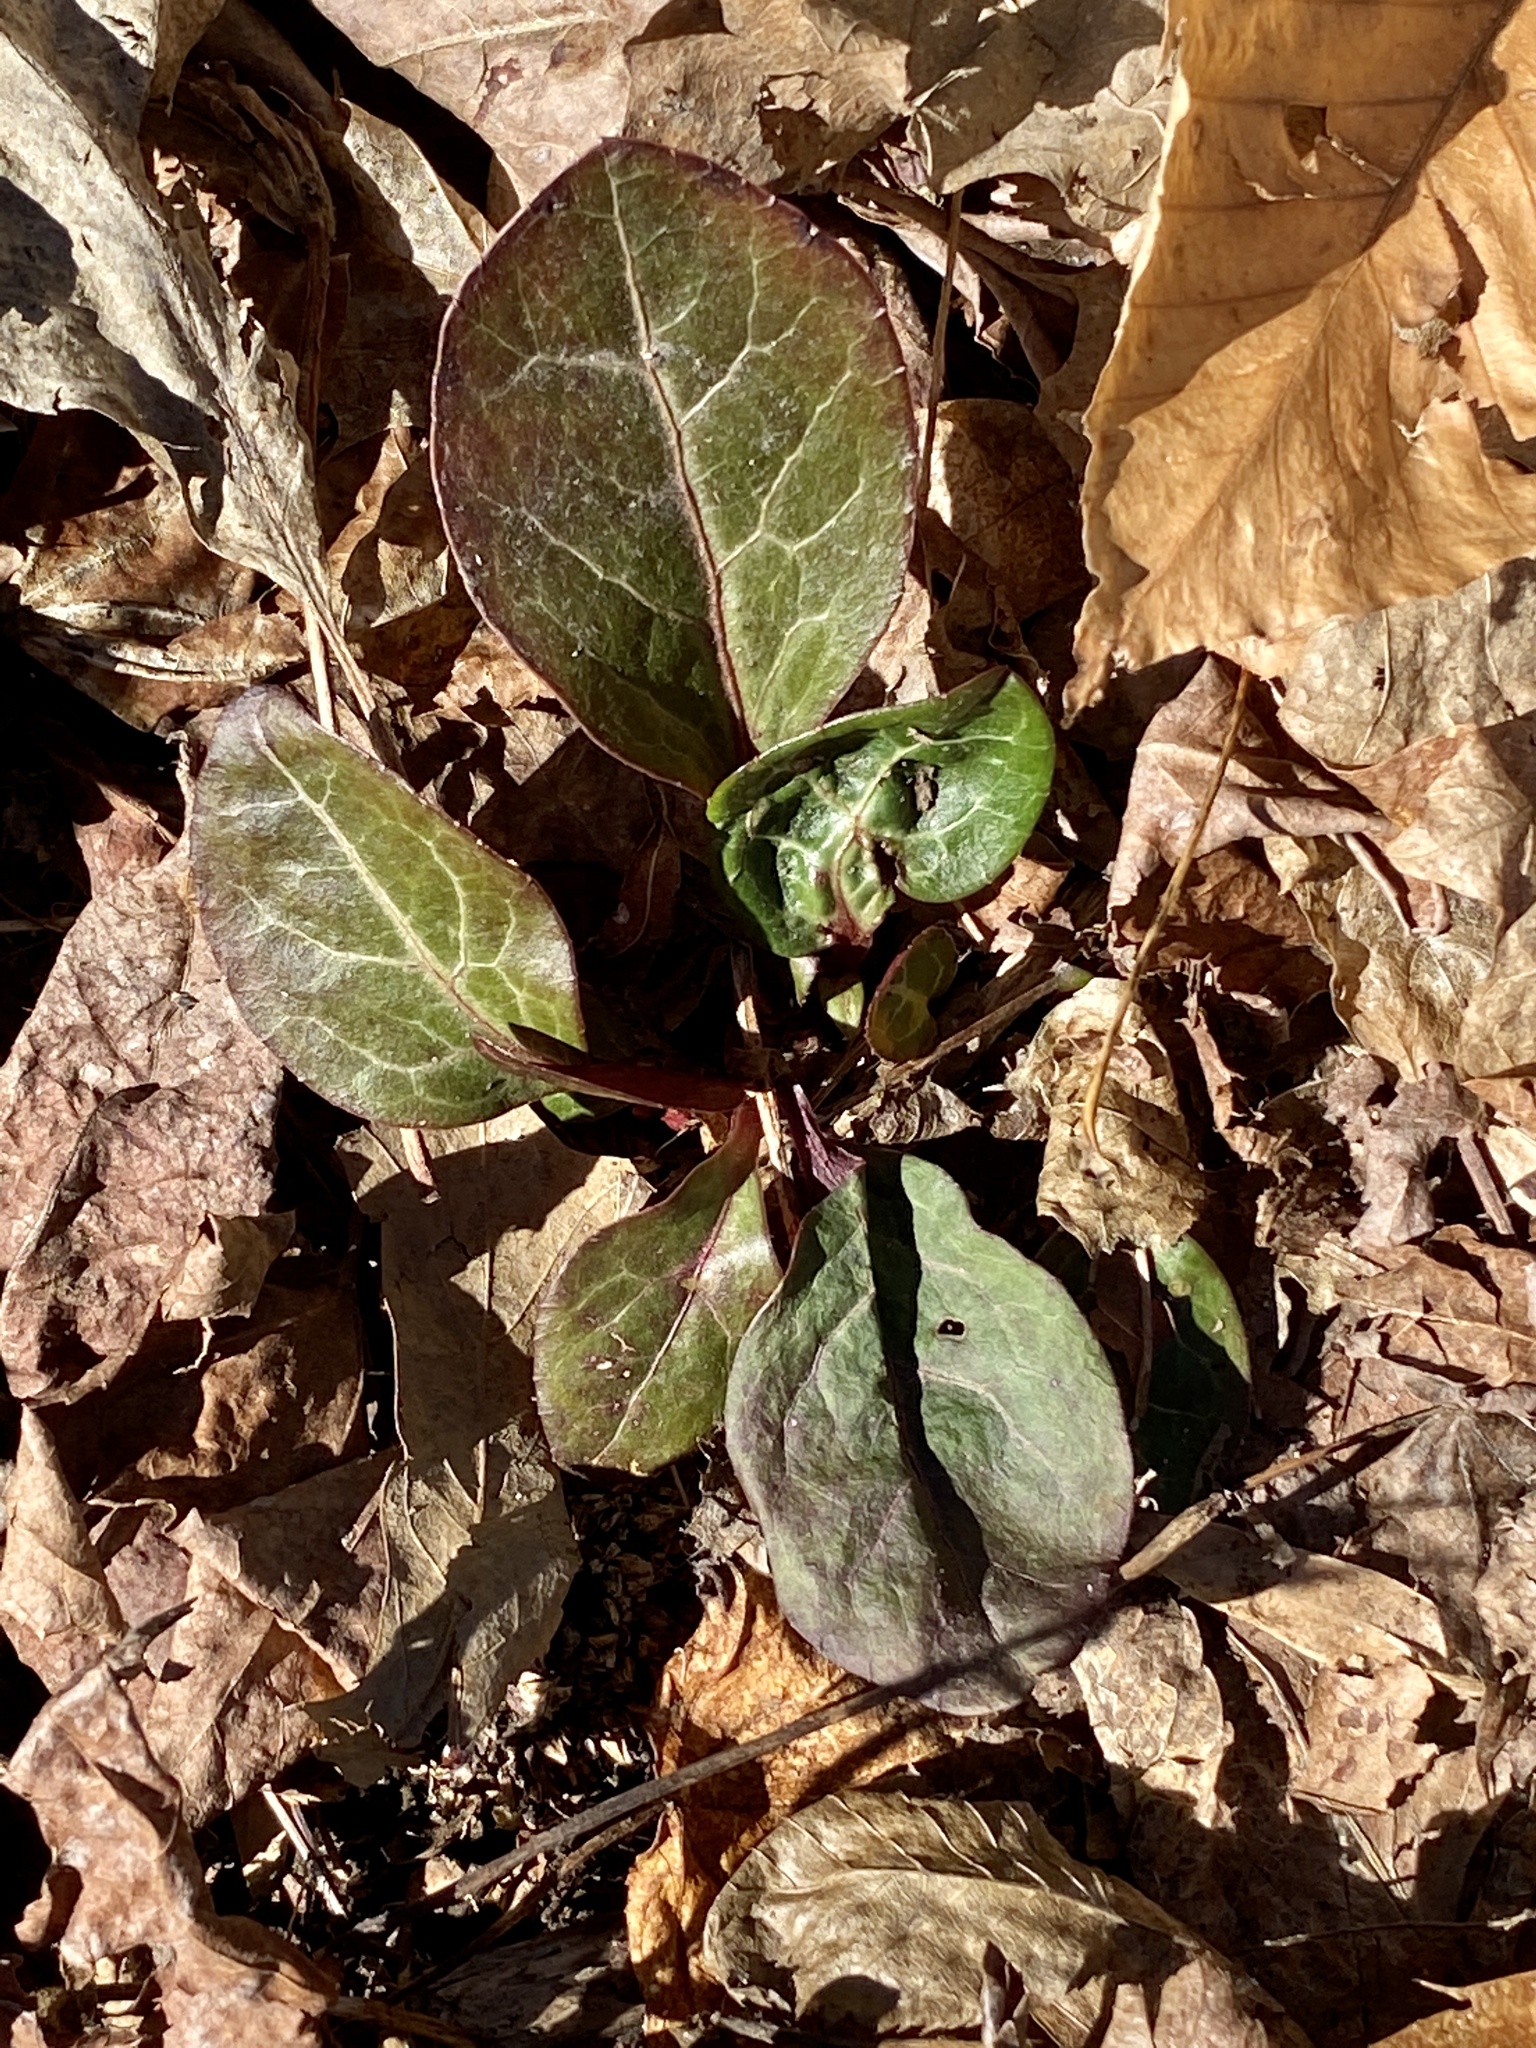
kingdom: Plantae
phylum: Tracheophyta
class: Magnoliopsida
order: Ericales
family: Ericaceae
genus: Pyrola
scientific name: Pyrola americana
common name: American wintergreen
